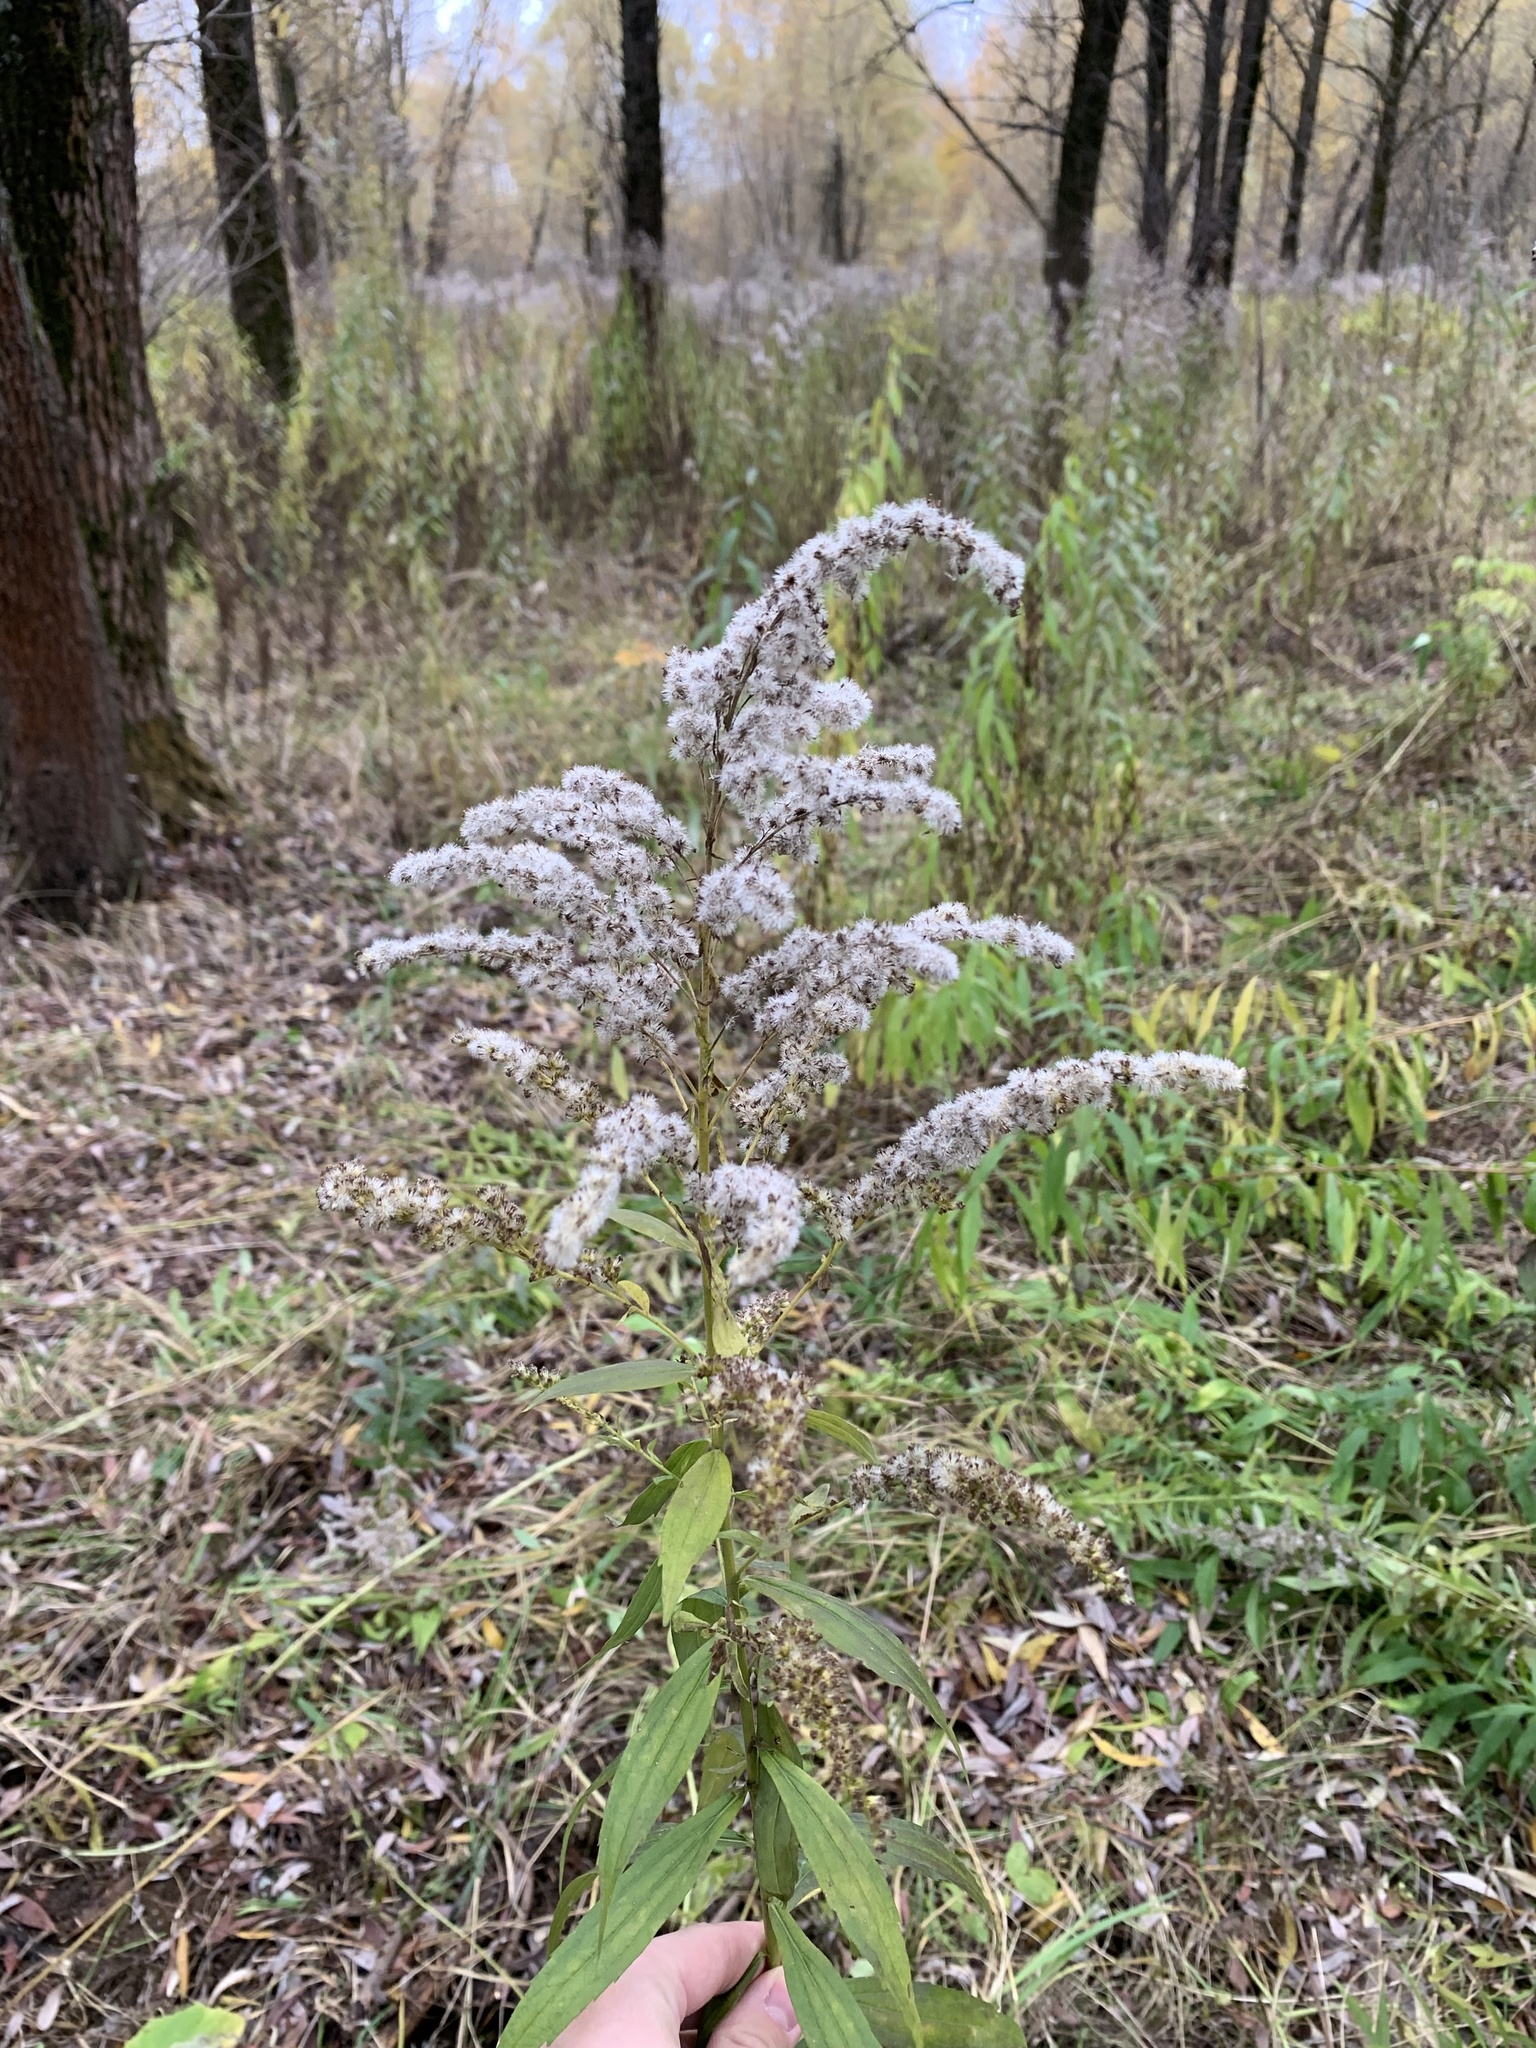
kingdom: Plantae
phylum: Tracheophyta
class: Magnoliopsida
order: Asterales
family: Asteraceae
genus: Solidago
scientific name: Solidago canadensis
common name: Canada goldenrod
